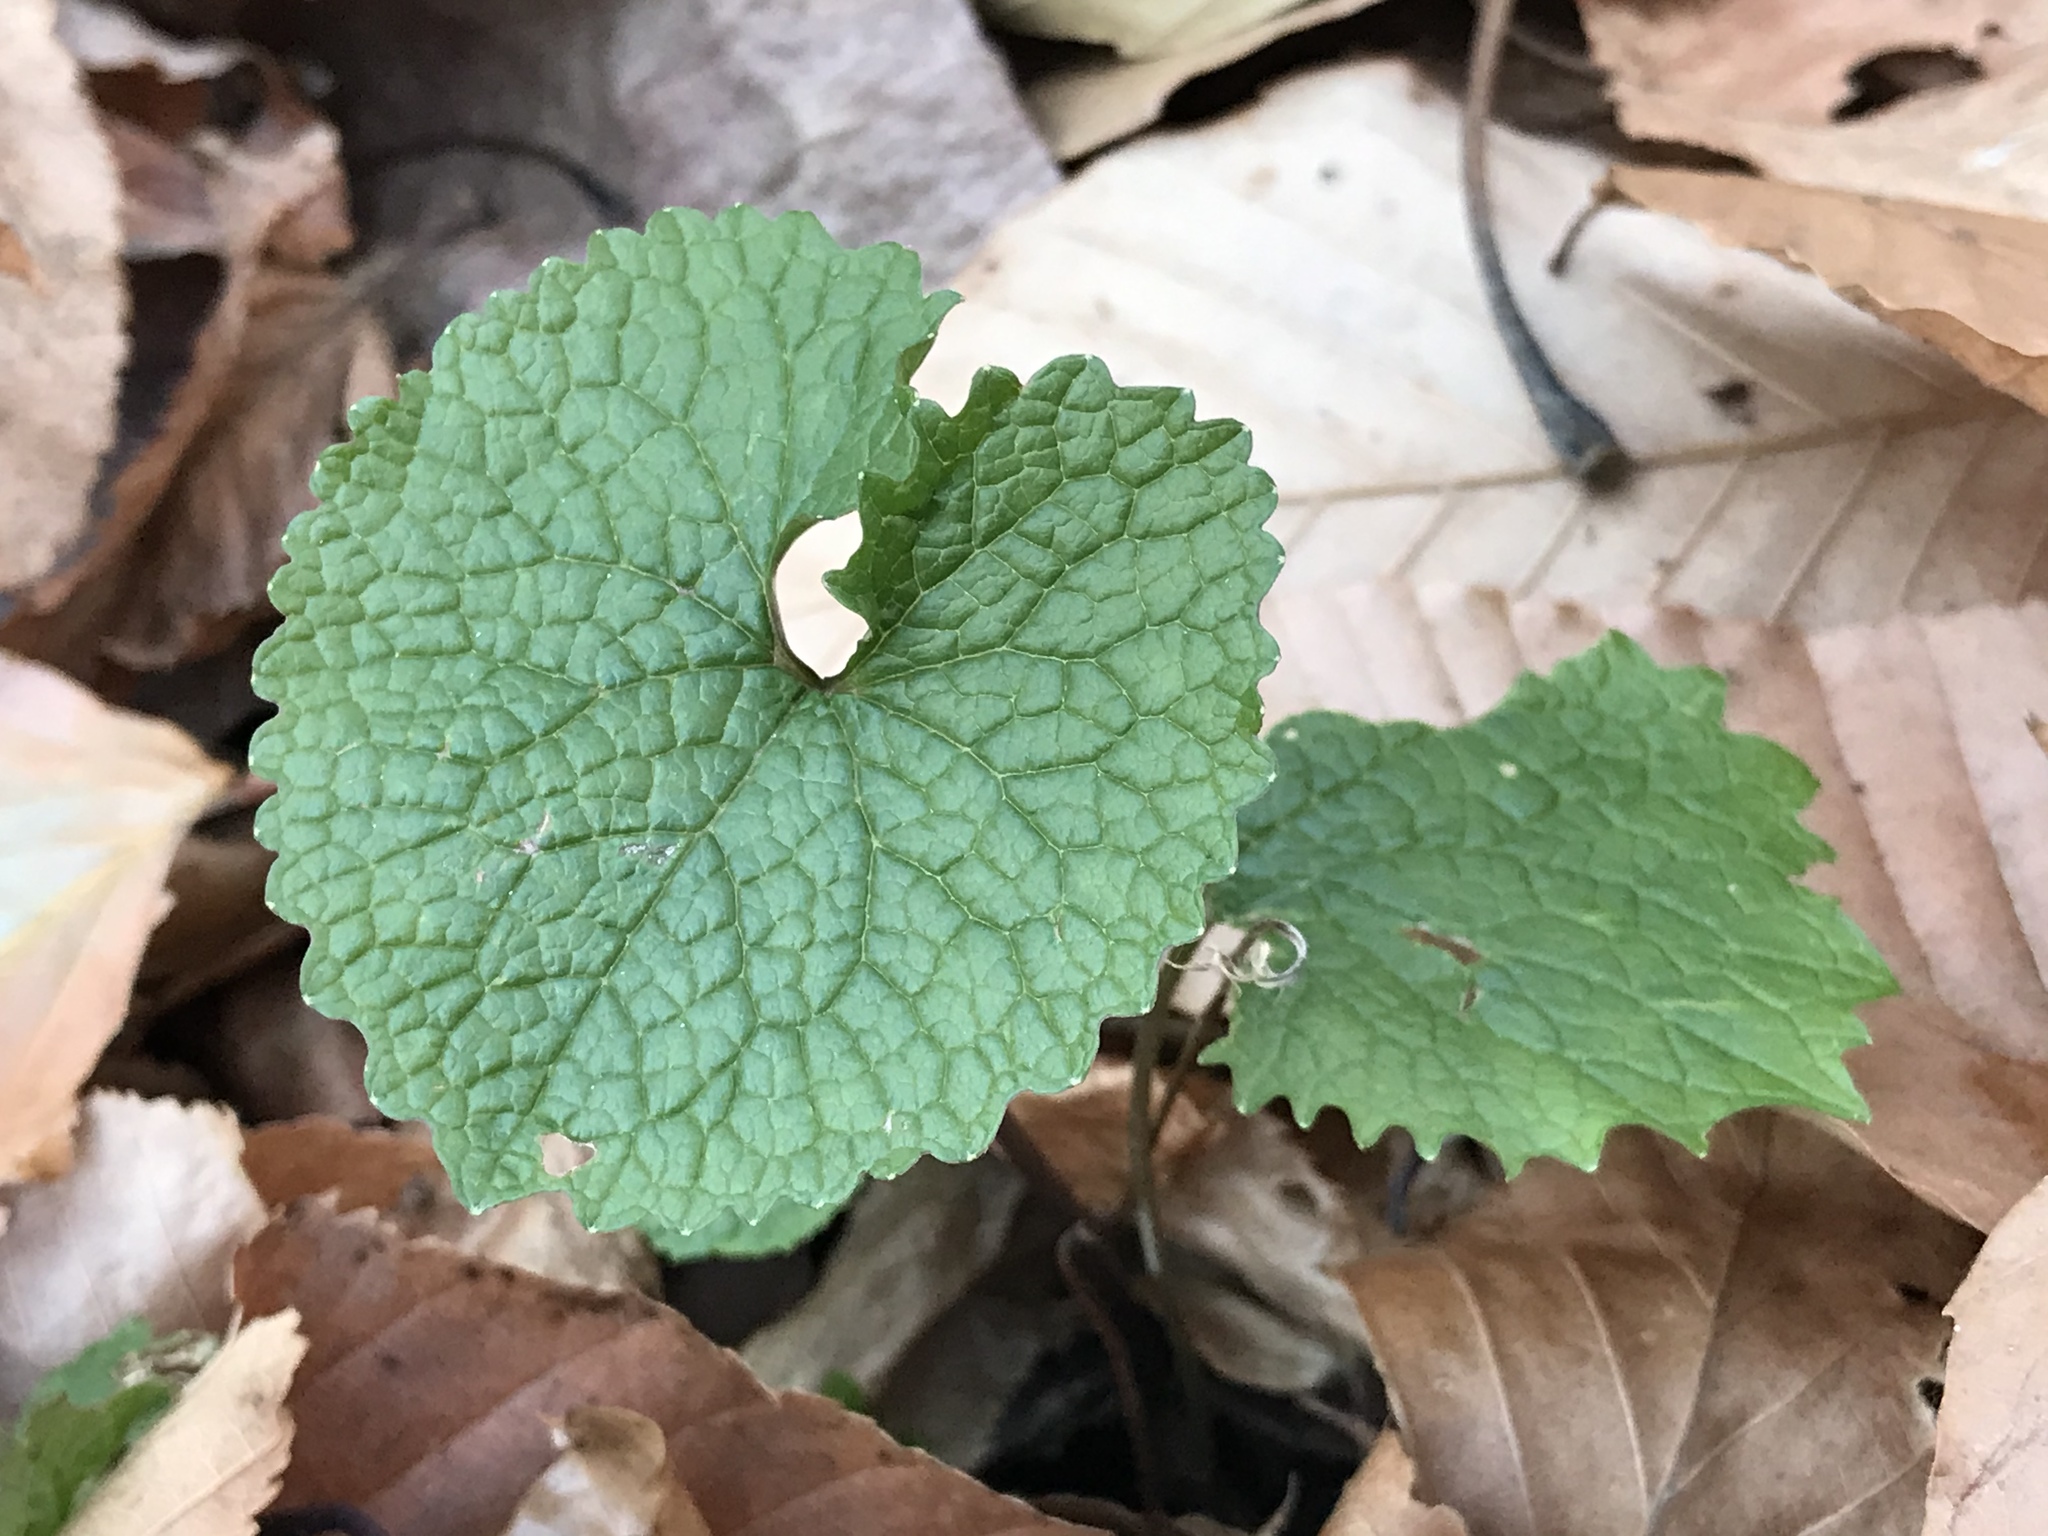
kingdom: Plantae
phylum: Tracheophyta
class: Magnoliopsida
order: Brassicales
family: Brassicaceae
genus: Alliaria
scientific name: Alliaria petiolata
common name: Garlic mustard
